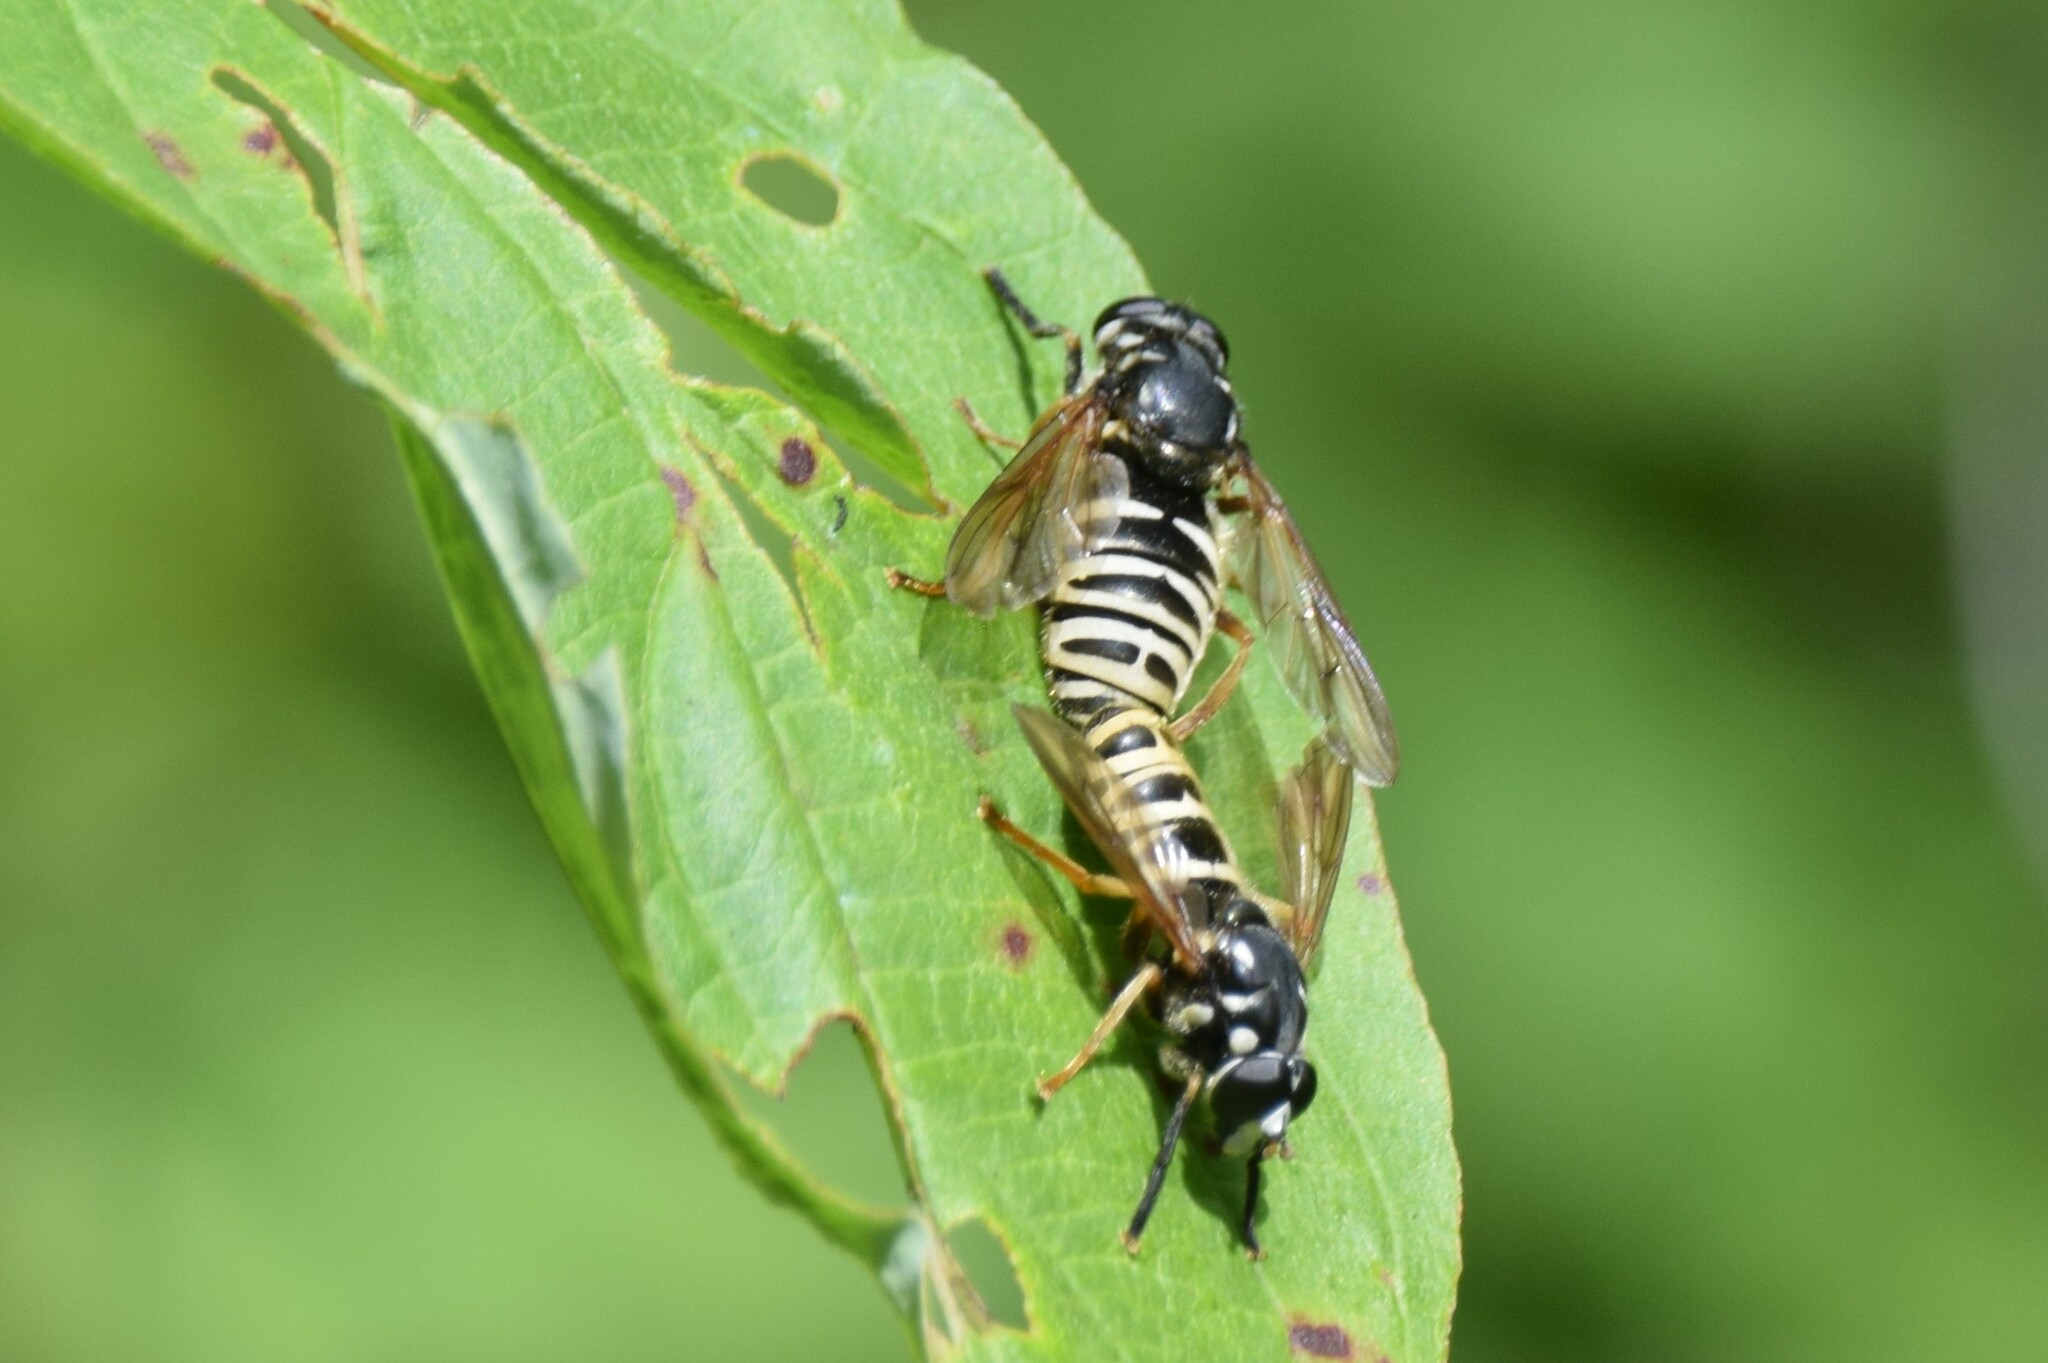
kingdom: Animalia
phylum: Arthropoda
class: Insecta
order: Diptera
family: Syrphidae
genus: Temnostoma
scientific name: Temnostoma excentricum
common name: Black-spotted falsehorn
